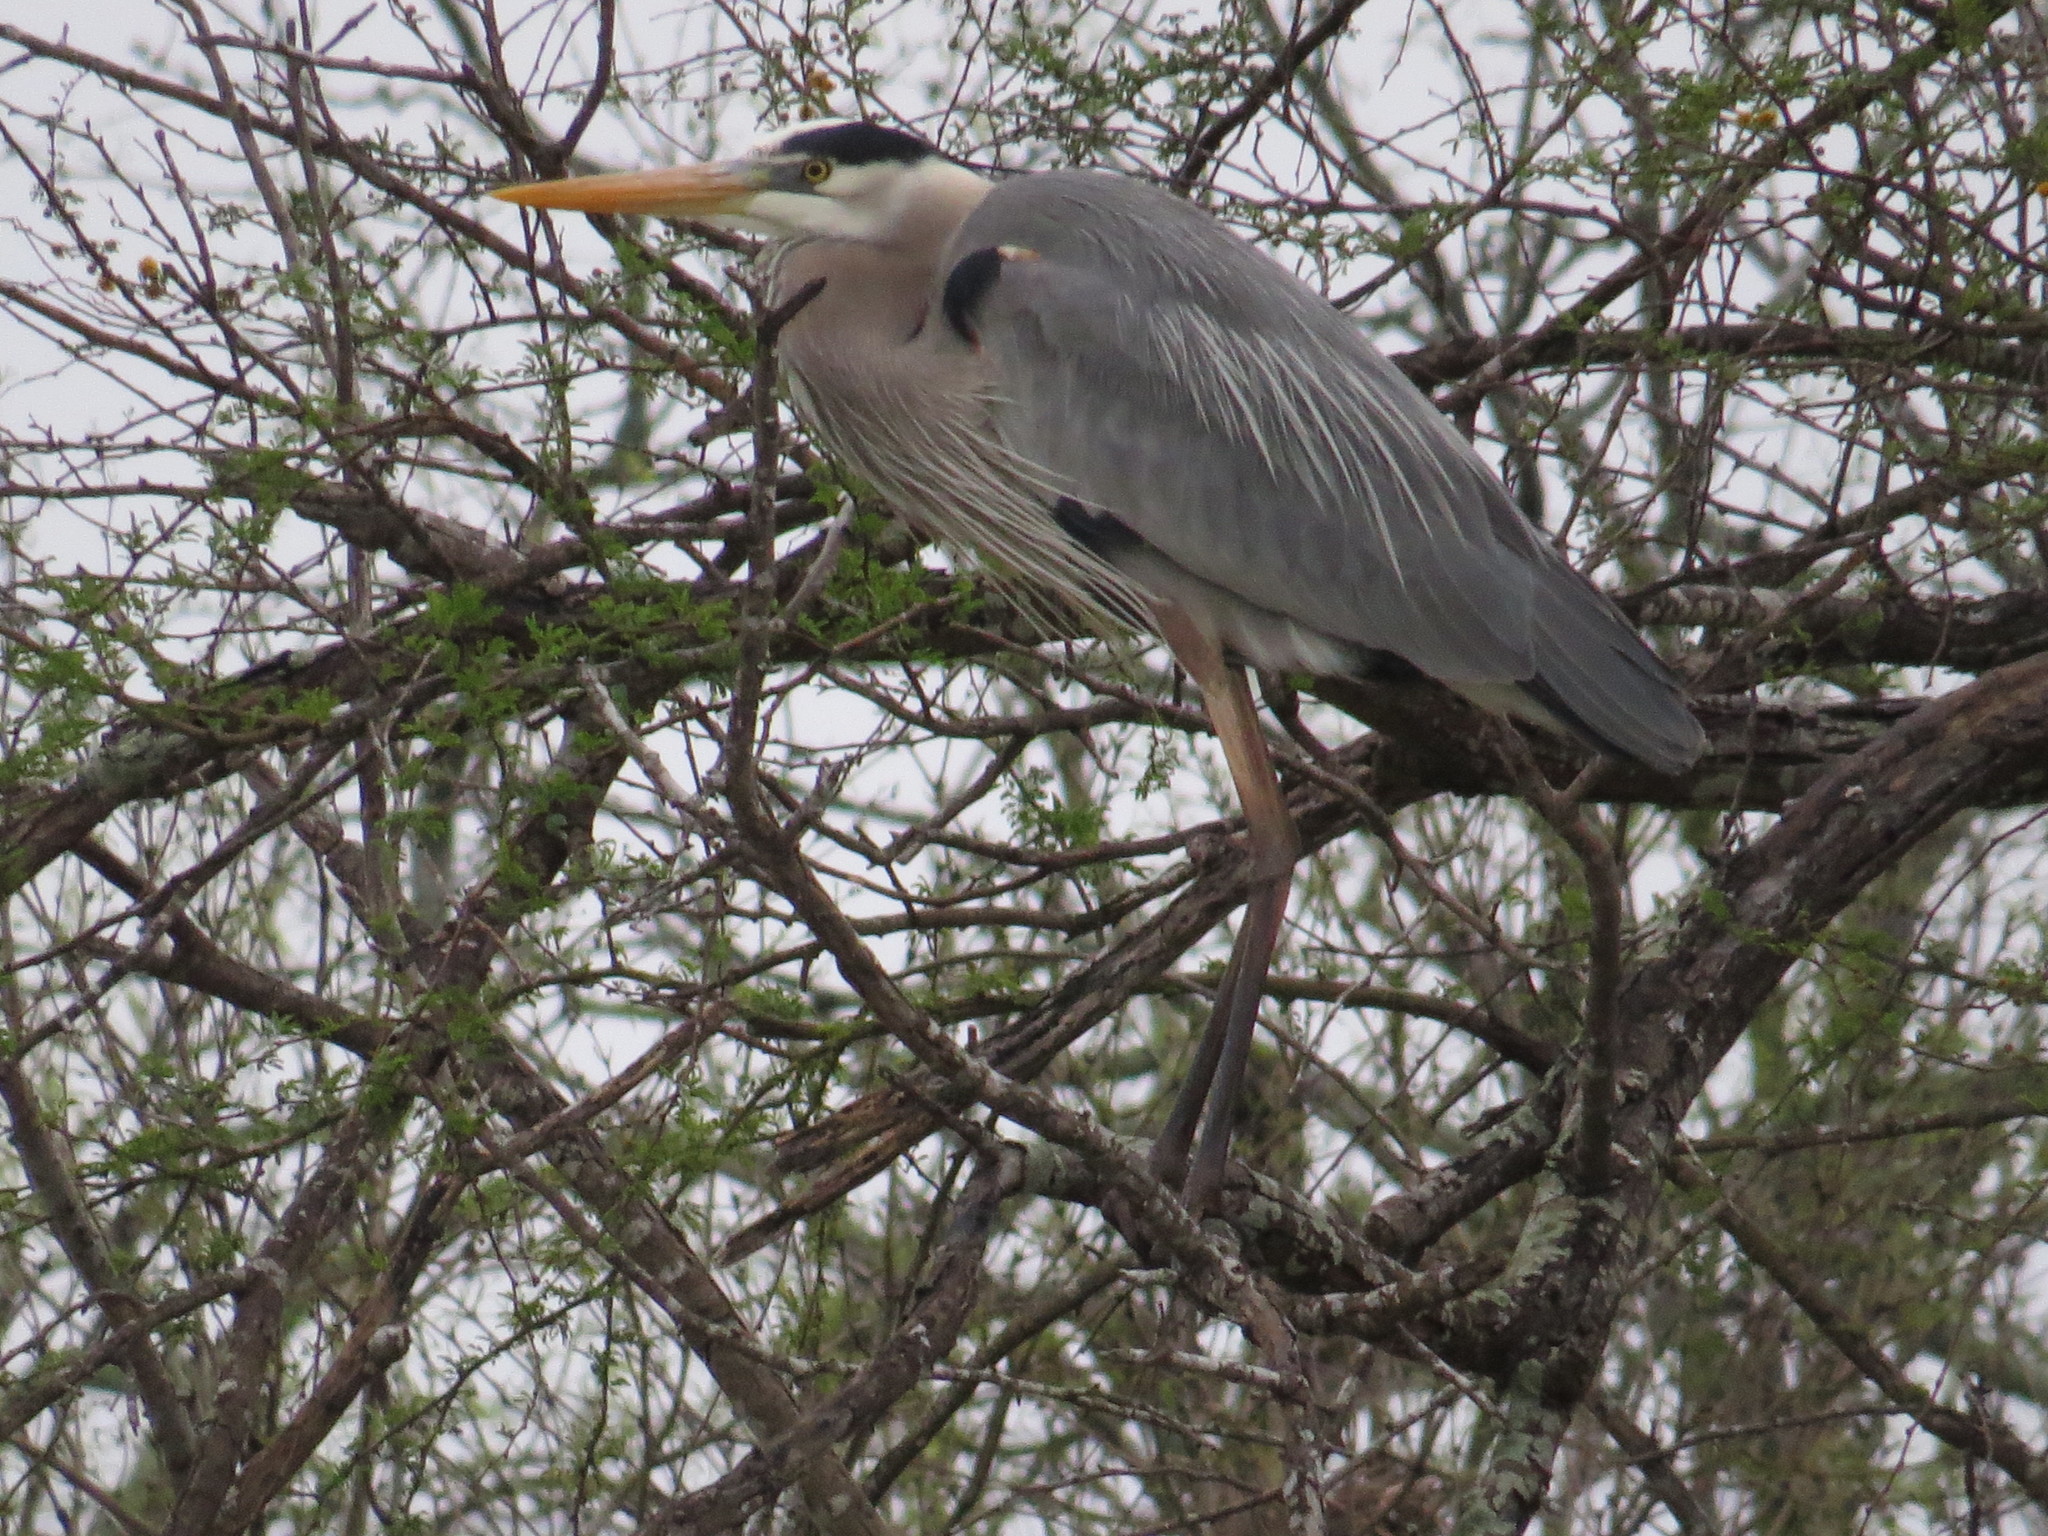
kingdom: Animalia
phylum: Chordata
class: Aves
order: Pelecaniformes
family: Ardeidae
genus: Ardea
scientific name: Ardea herodias
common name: Great blue heron
